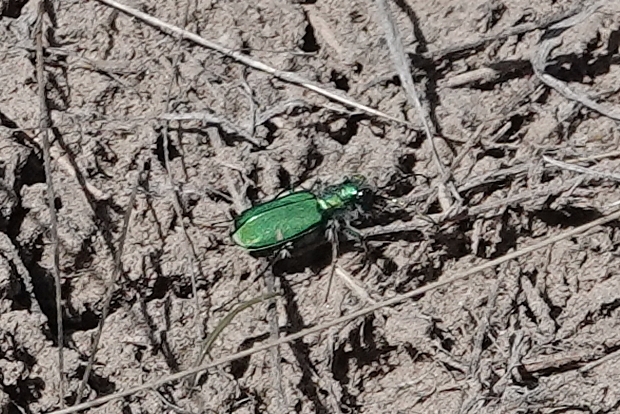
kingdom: Animalia
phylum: Arthropoda
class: Insecta
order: Coleoptera
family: Carabidae
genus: Cicindela
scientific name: Cicindela denverensis
